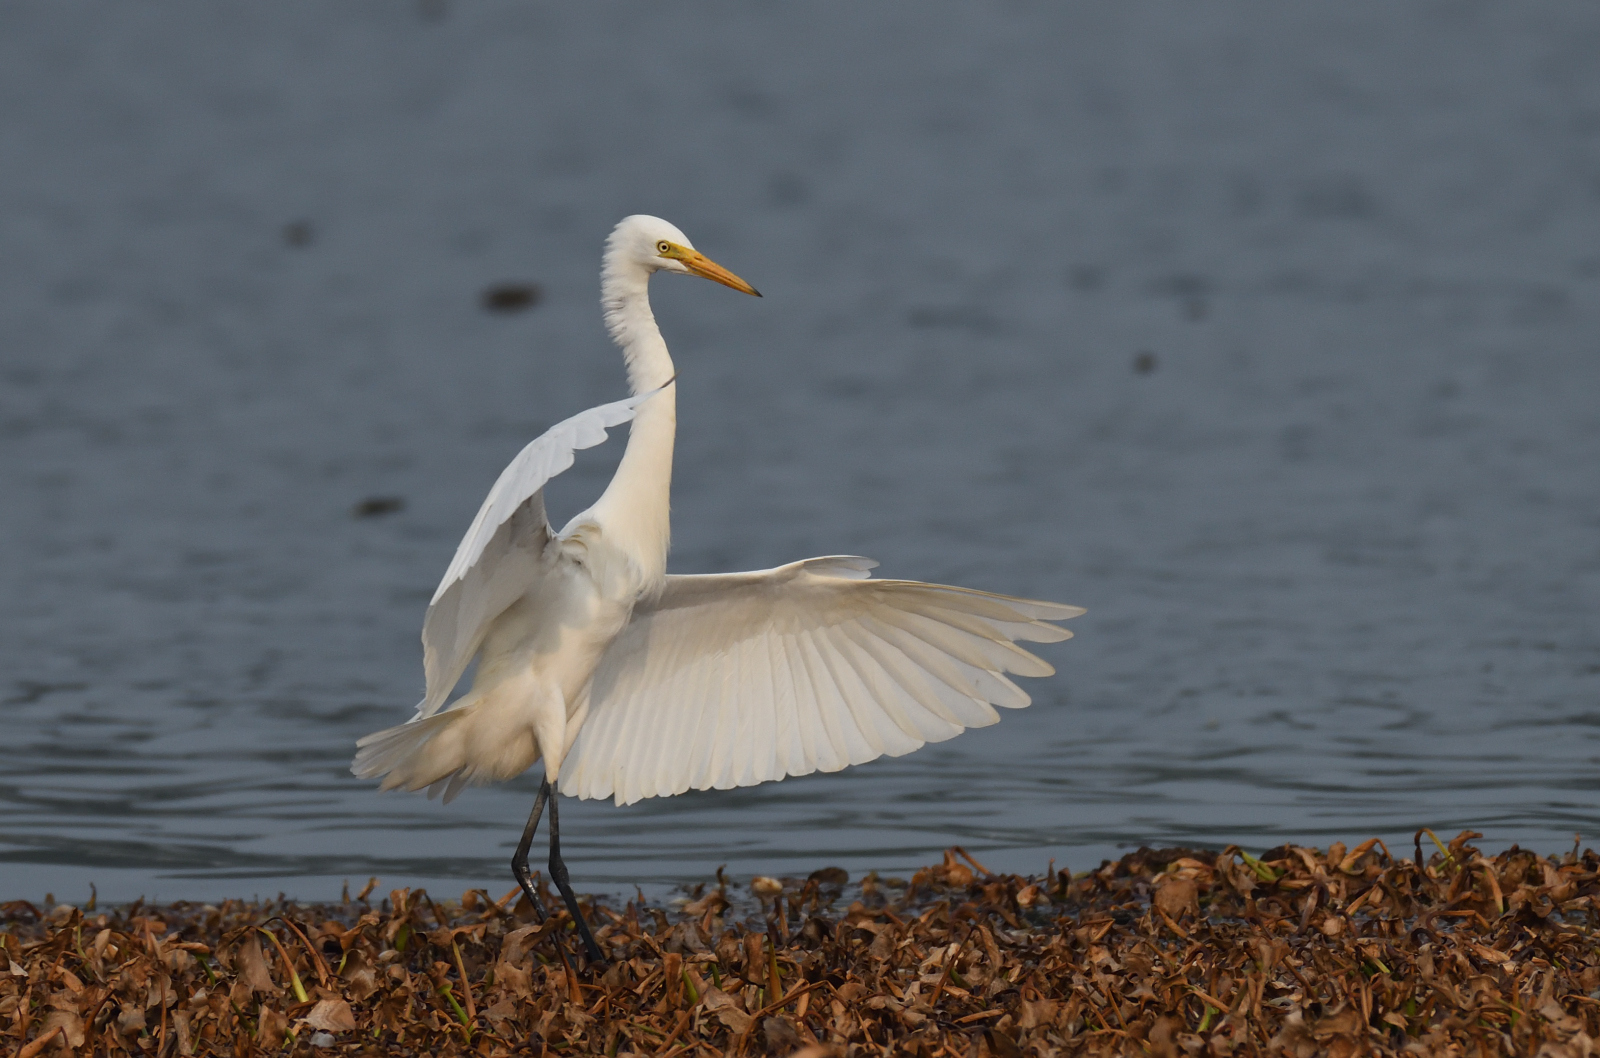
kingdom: Animalia
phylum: Chordata
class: Aves
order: Pelecaniformes
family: Ardeidae
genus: Egretta
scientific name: Egretta intermedia
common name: Intermediate egret
